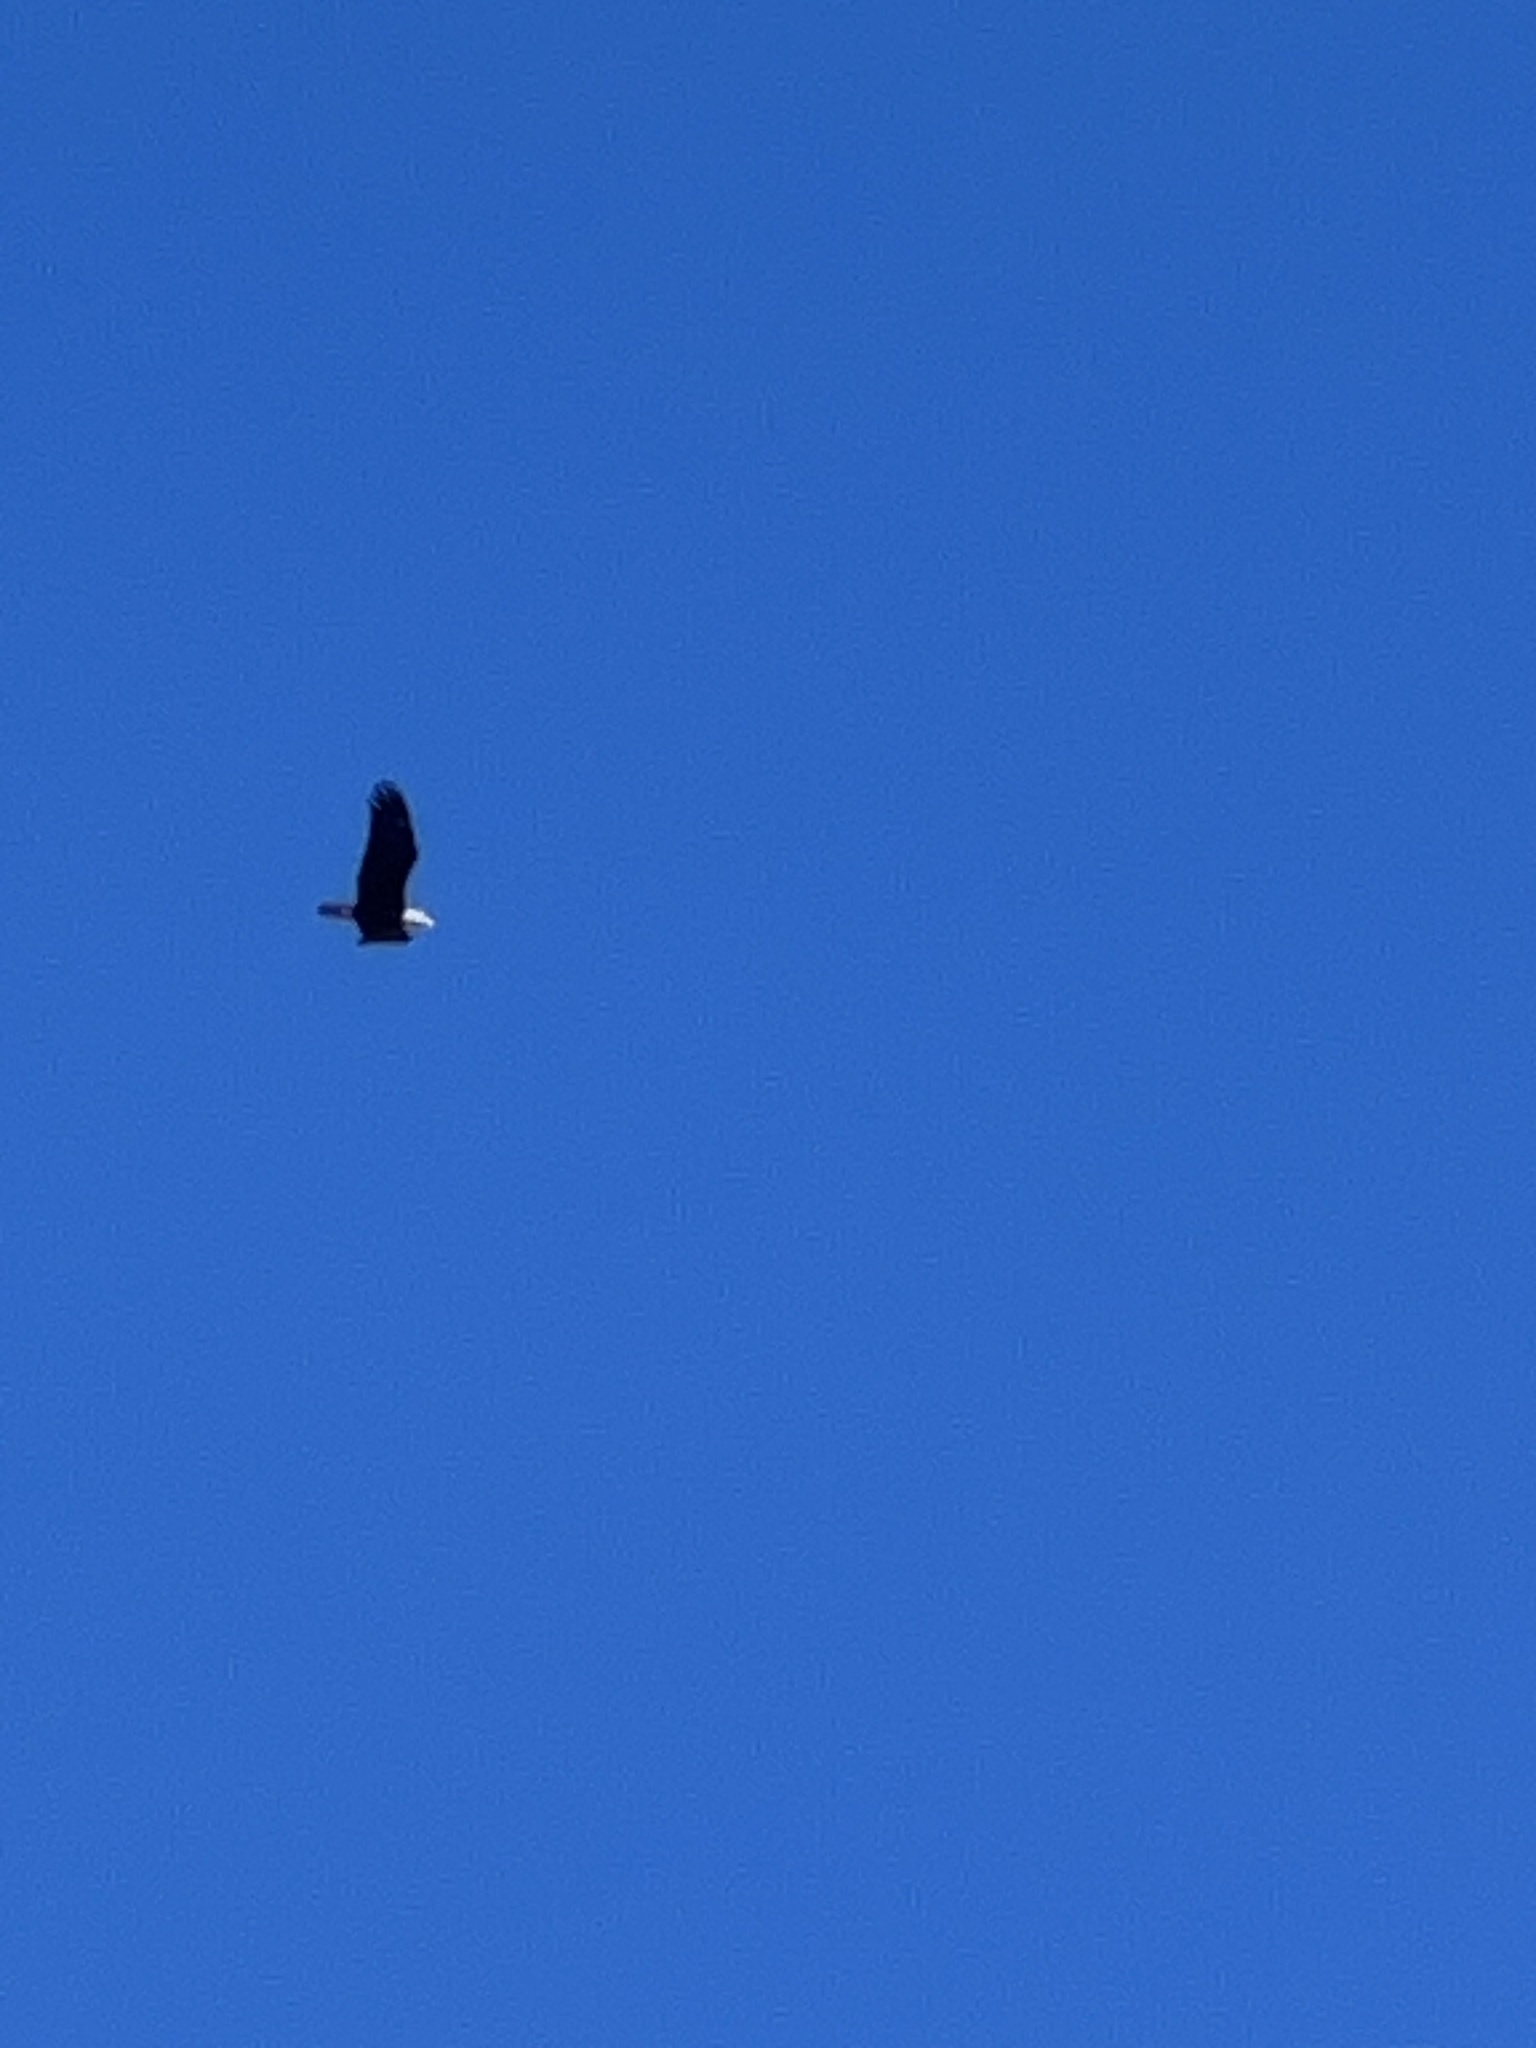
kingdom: Animalia
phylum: Chordata
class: Aves
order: Accipitriformes
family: Accipitridae
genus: Haliaeetus
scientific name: Haliaeetus leucocephalus
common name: Bald eagle
